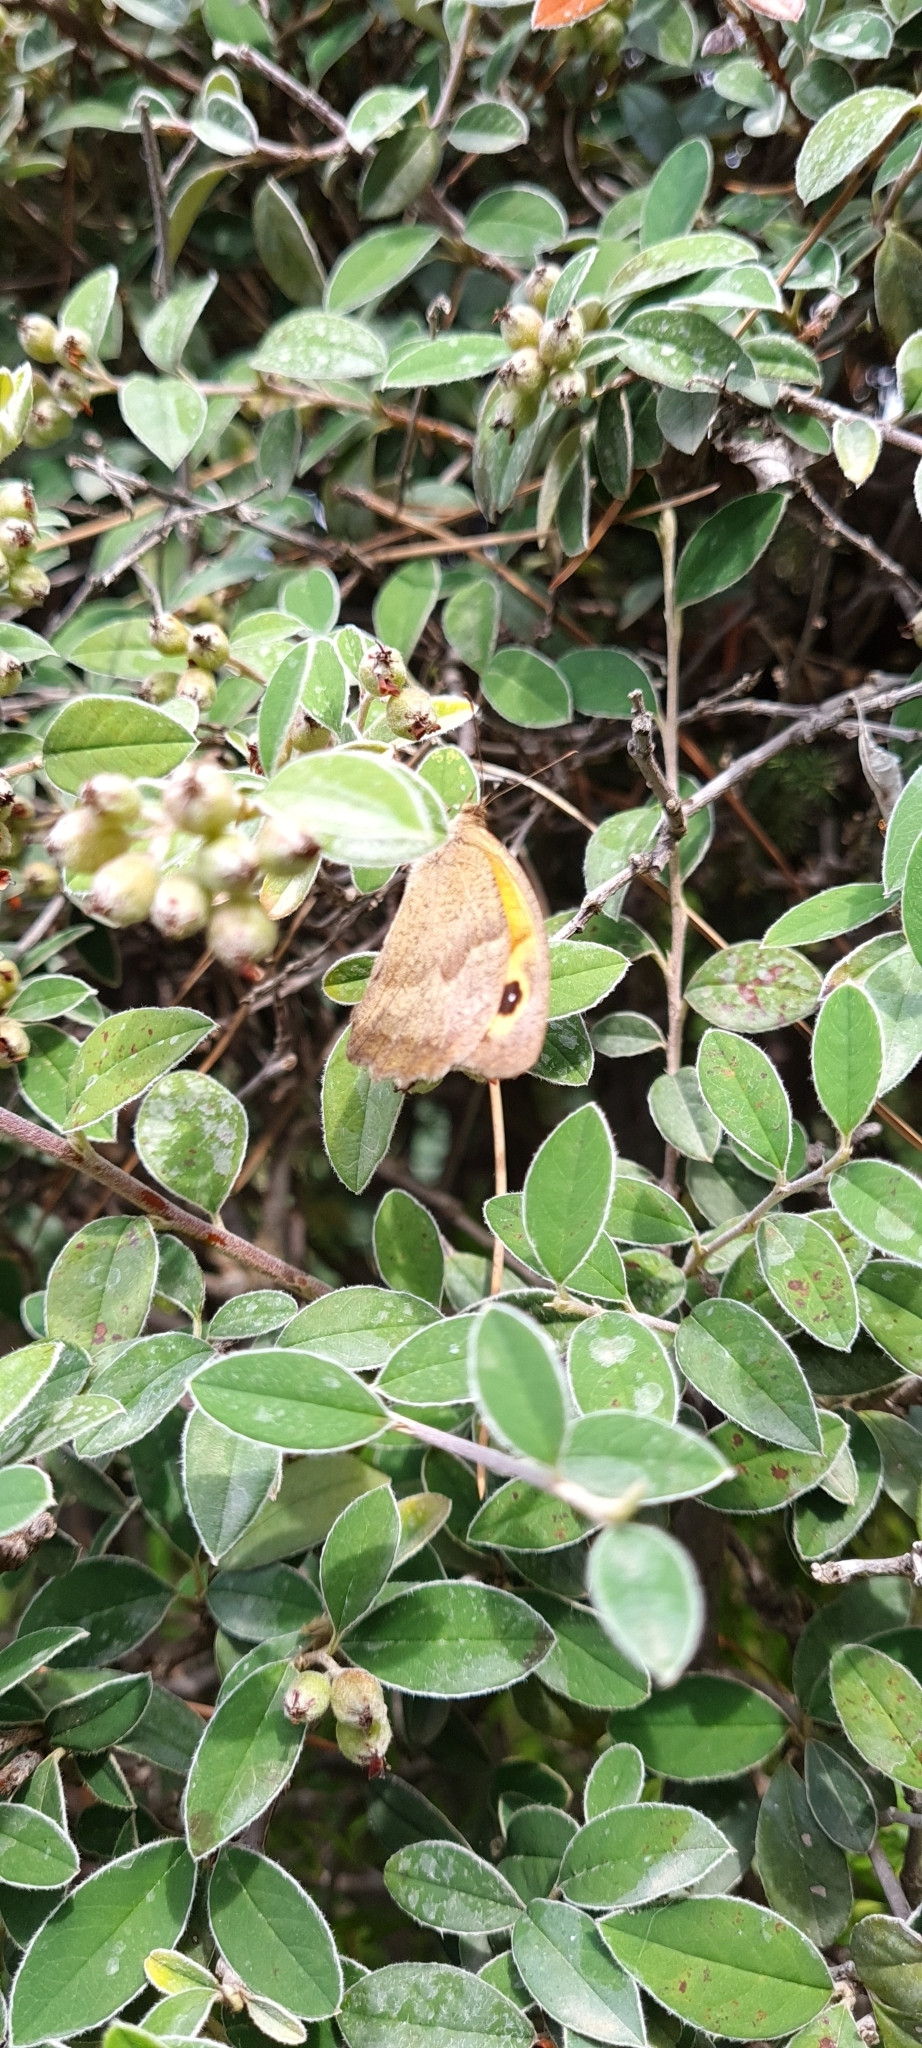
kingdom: Animalia
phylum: Arthropoda
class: Insecta
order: Lepidoptera
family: Nymphalidae
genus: Maniola
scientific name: Maniola jurtina
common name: Meadow brown
